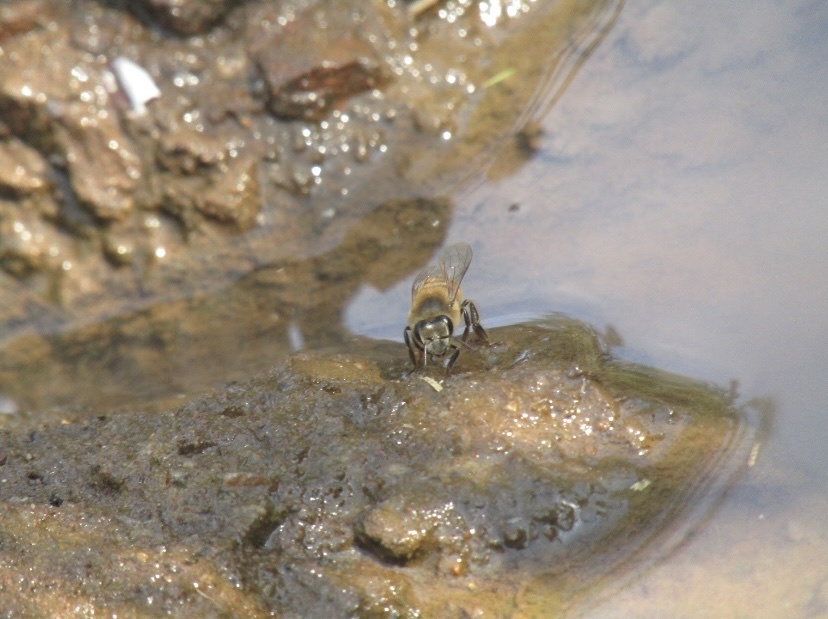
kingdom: Animalia
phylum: Arthropoda
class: Insecta
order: Hymenoptera
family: Apidae
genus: Apis
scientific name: Apis mellifera
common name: Honey bee
